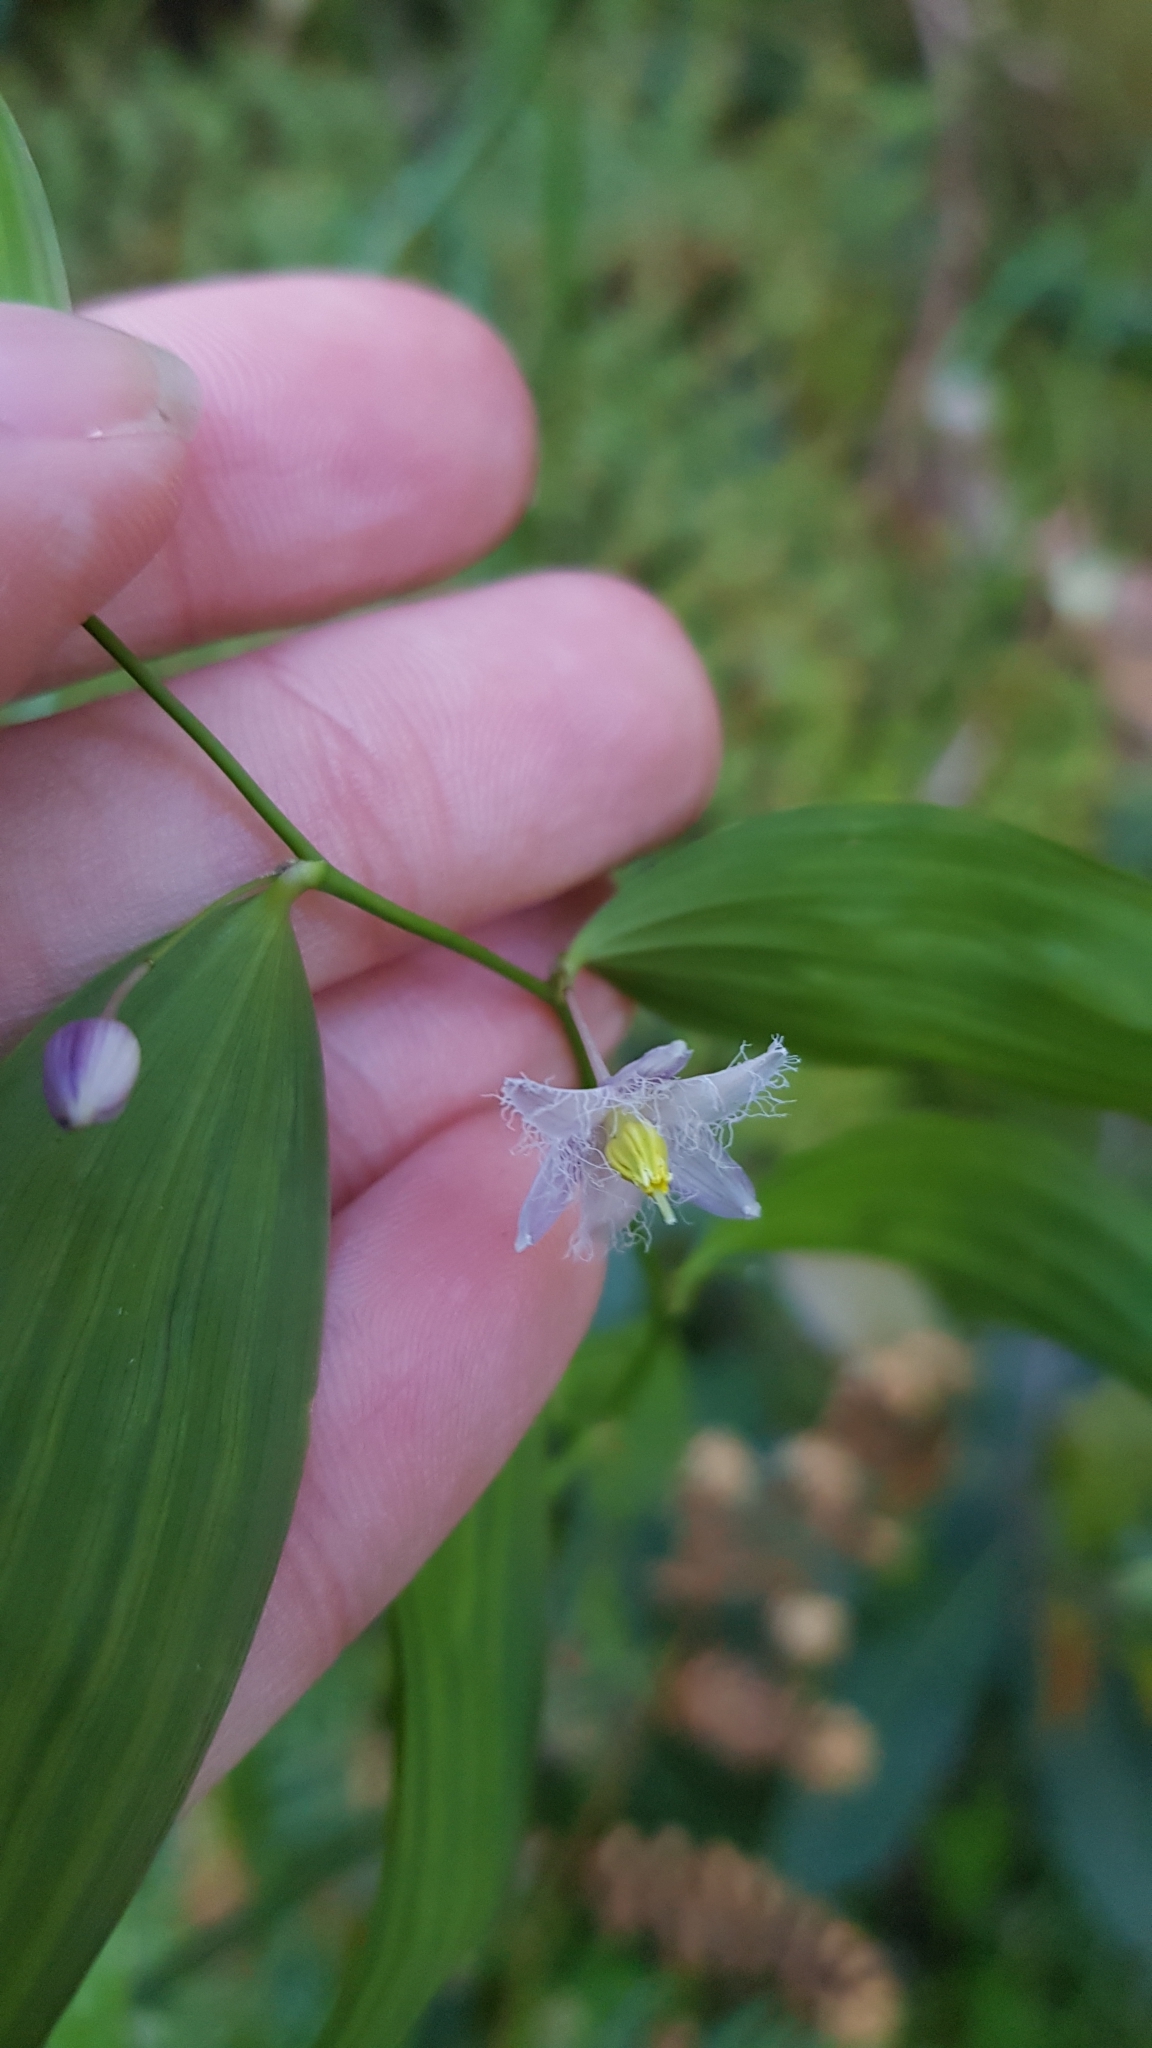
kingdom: Plantae
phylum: Tracheophyta
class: Liliopsida
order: Asparagales
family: Asparagaceae
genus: Eustrephus
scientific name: Eustrephus latifolius
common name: Orangevine
